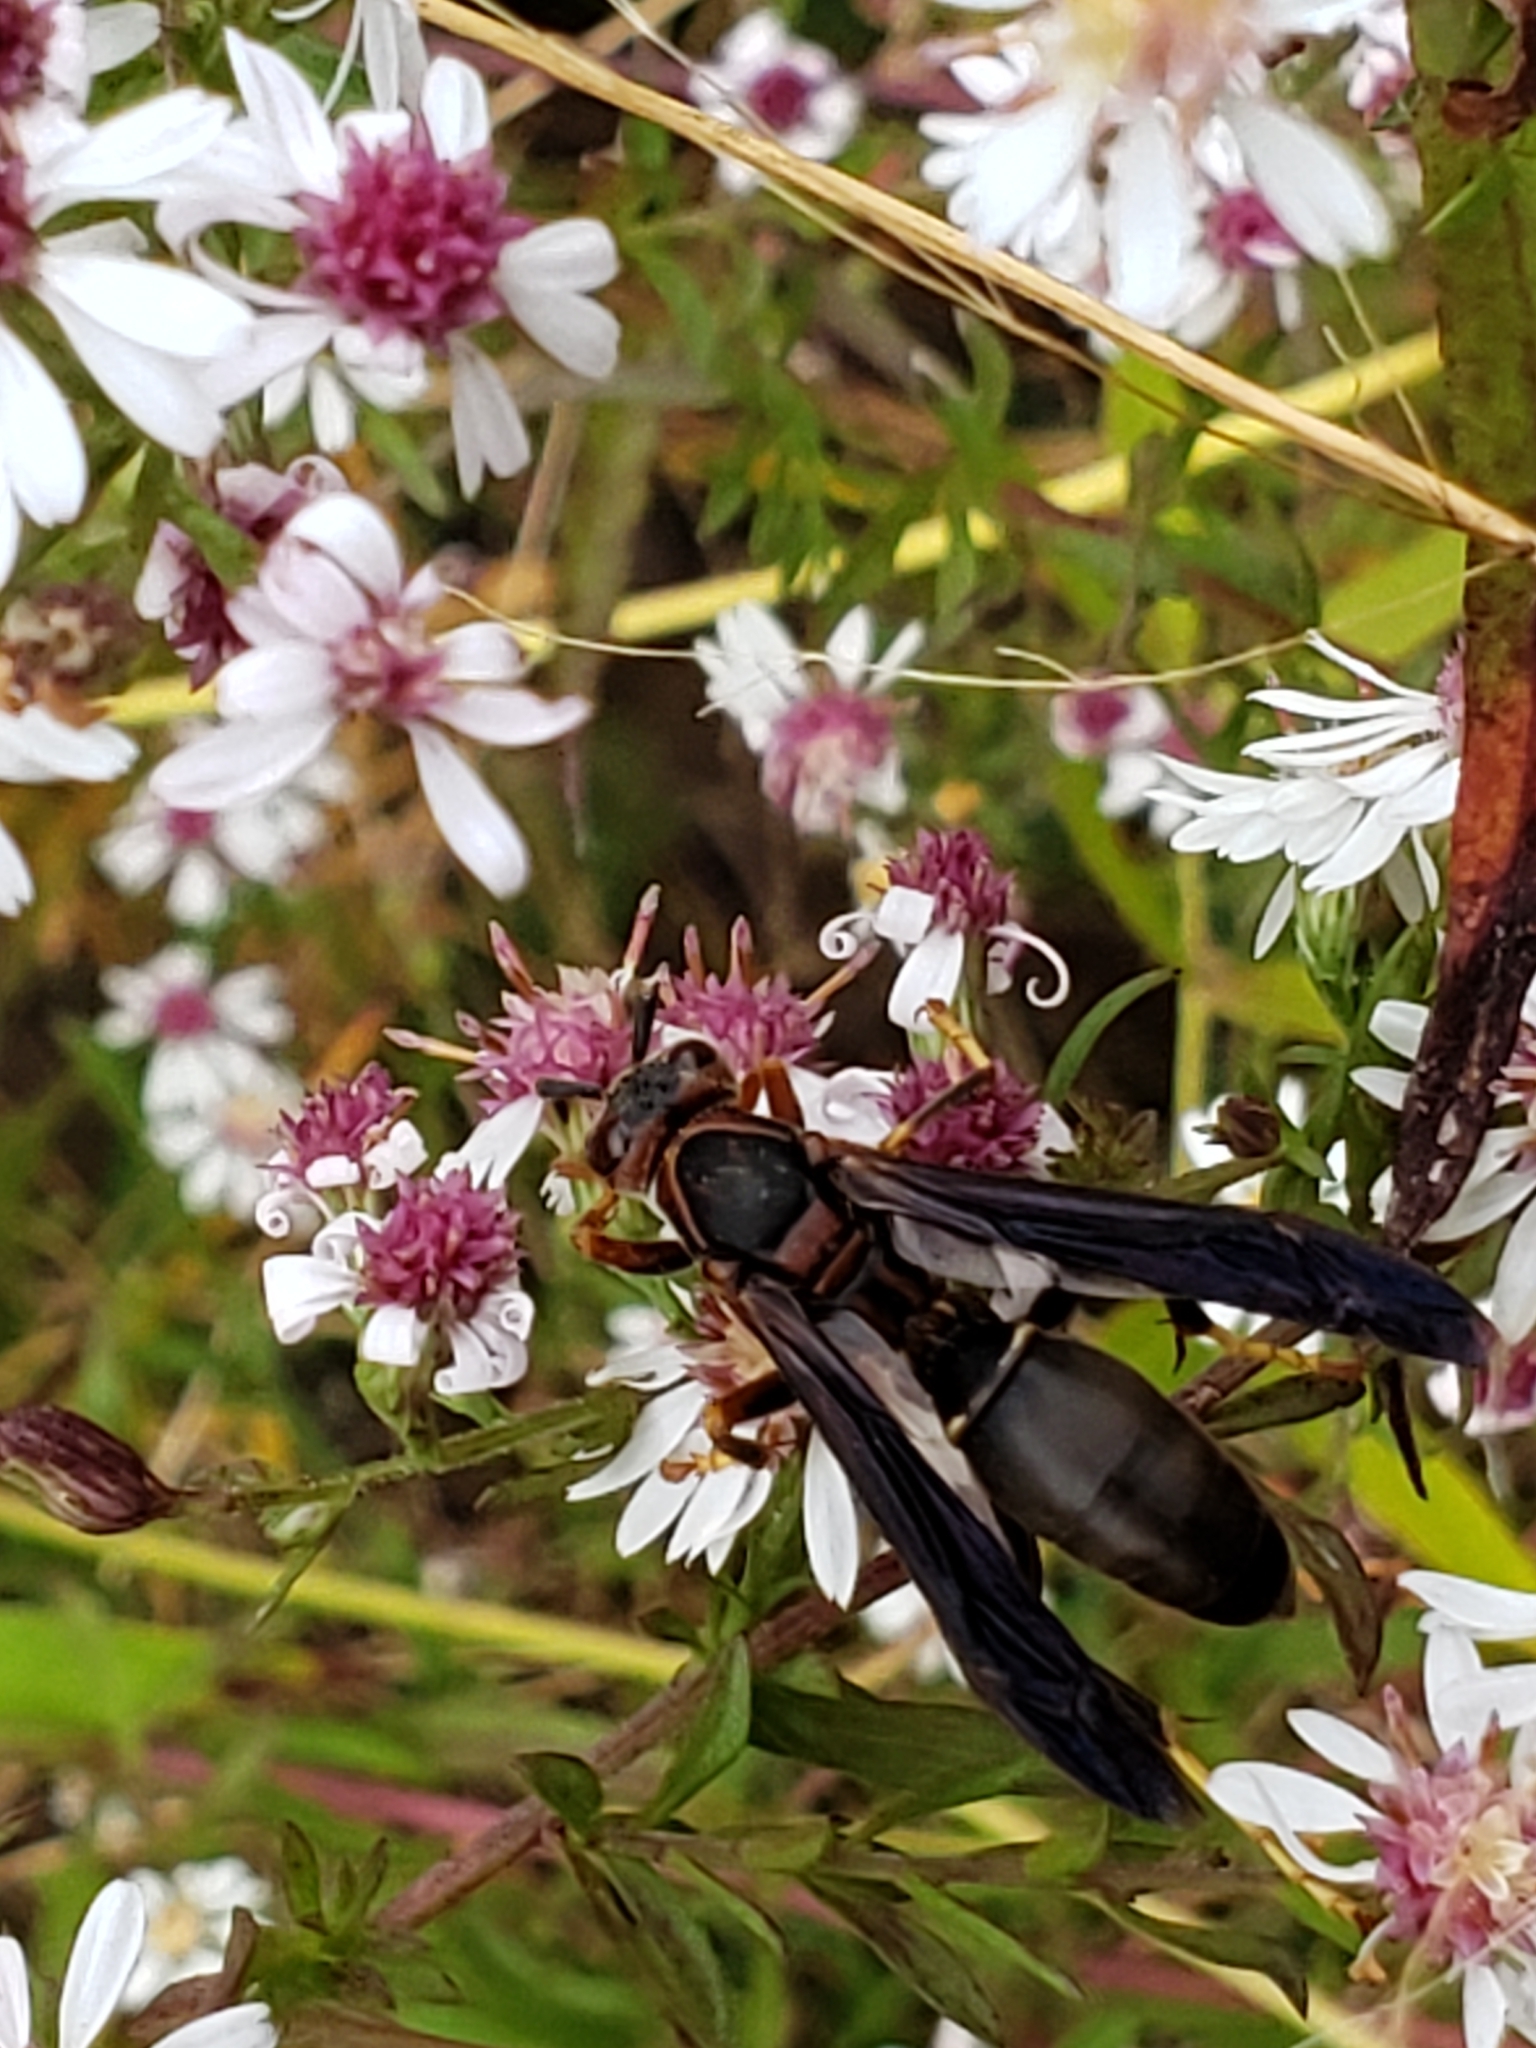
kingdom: Animalia
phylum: Arthropoda
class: Insecta
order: Hymenoptera
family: Eumenidae
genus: Polistes
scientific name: Polistes fuscatus
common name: Dark paper wasp
